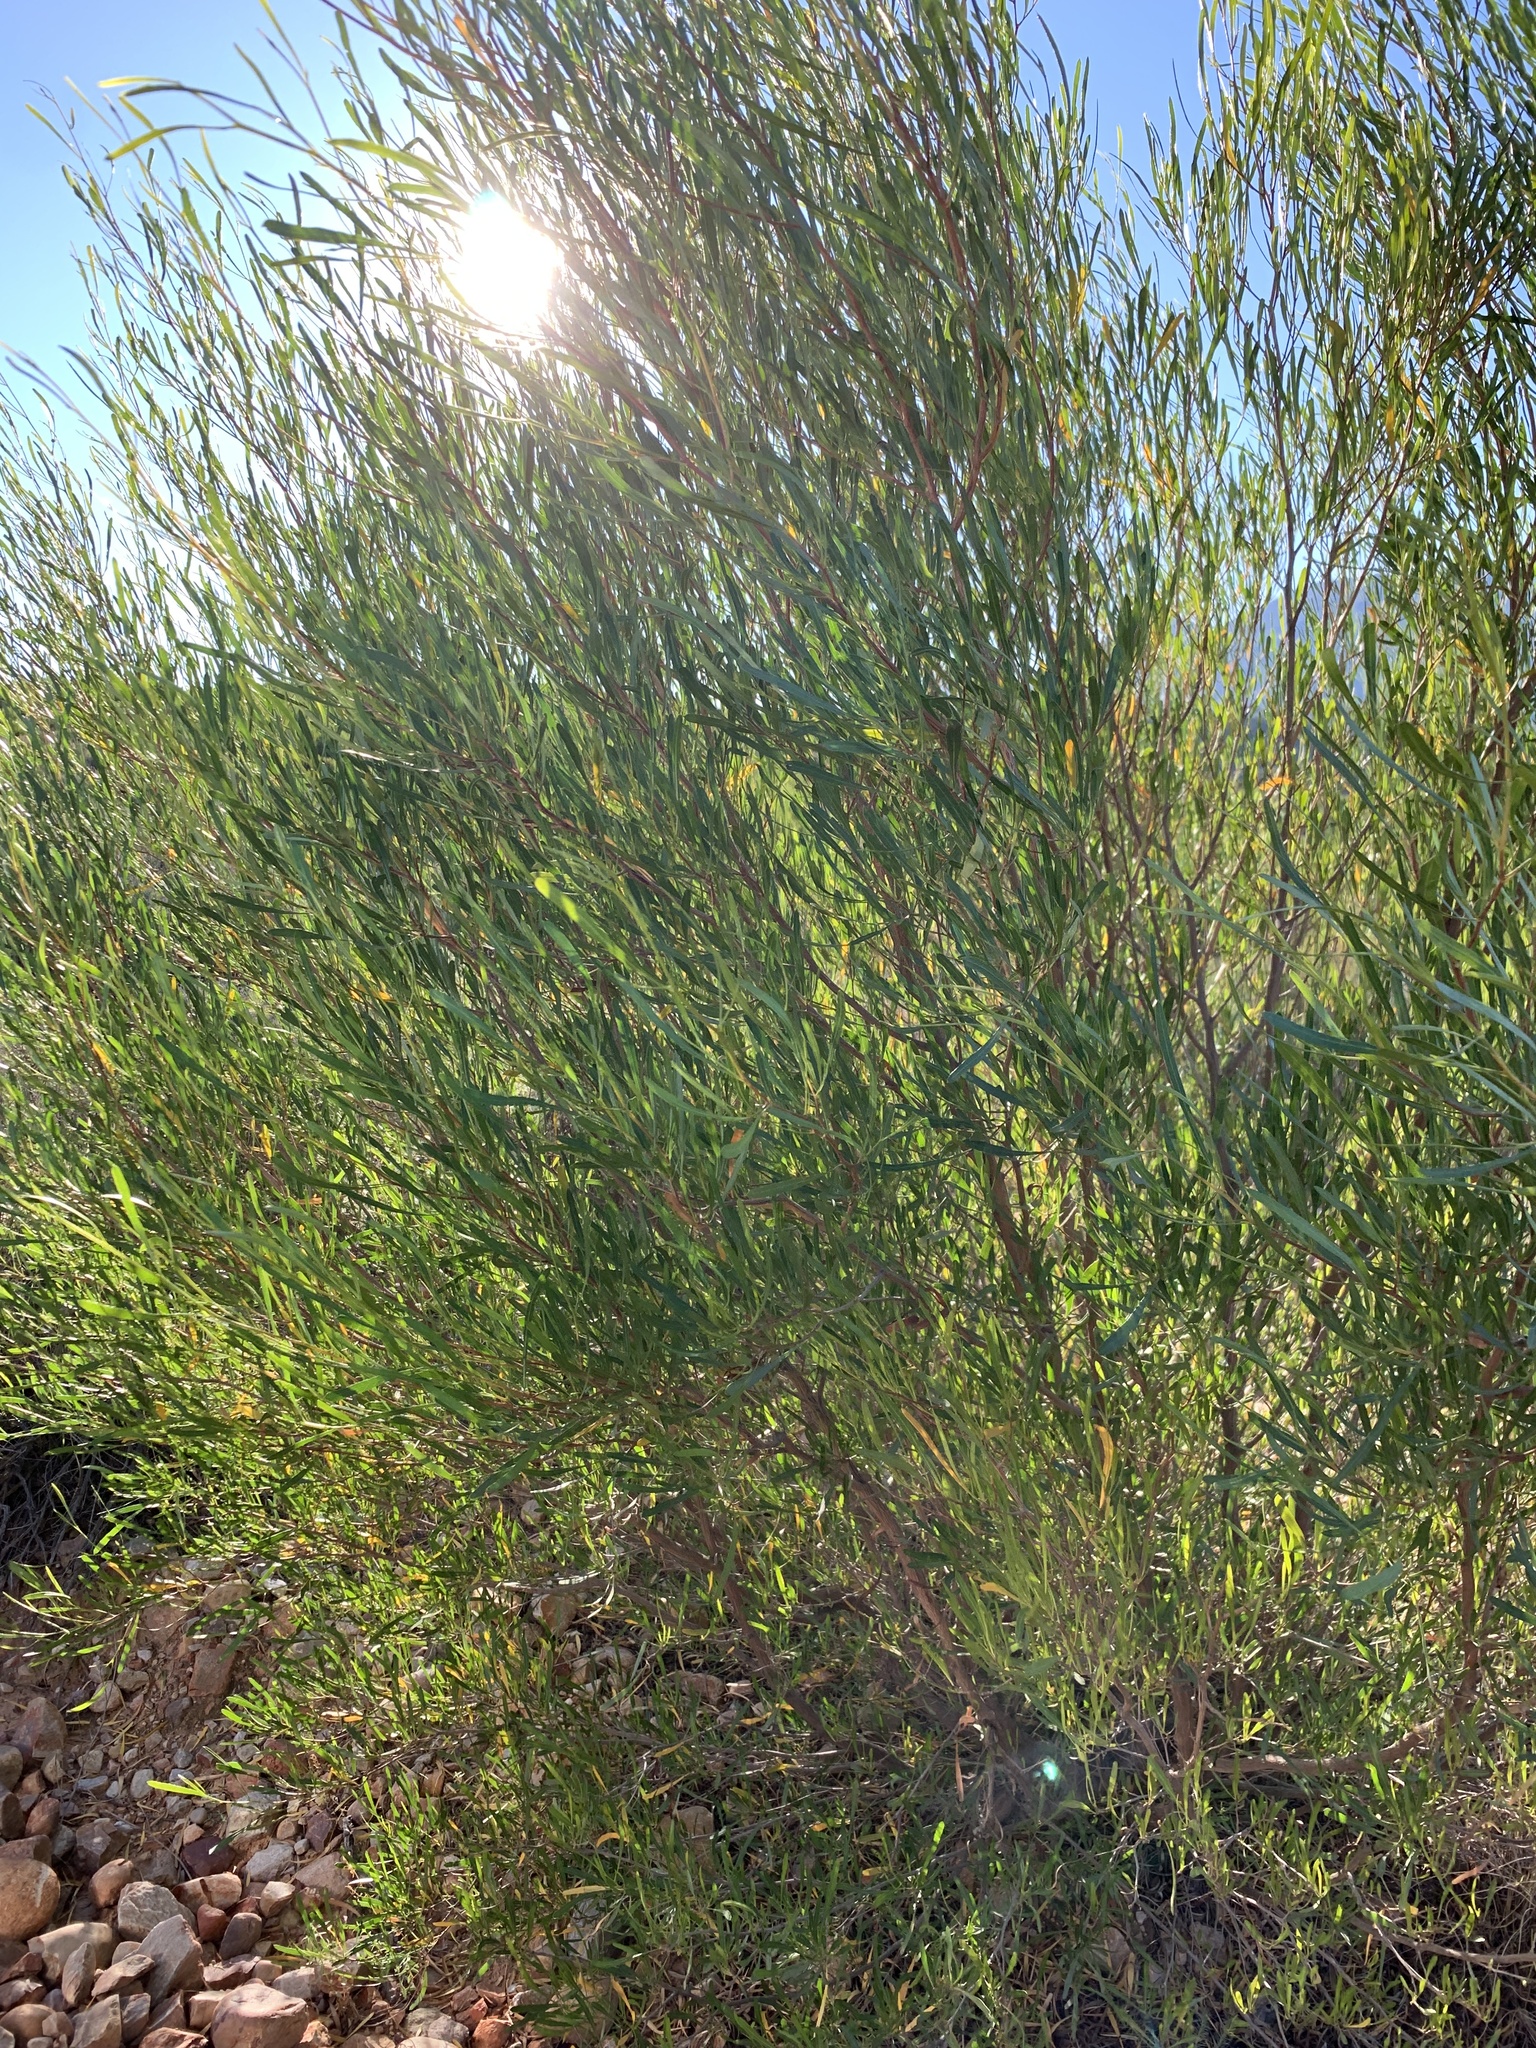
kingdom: Plantae
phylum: Tracheophyta
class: Magnoliopsida
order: Sapindales
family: Sapindaceae
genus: Dodonaea
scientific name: Dodonaea viscosa
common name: Hopbush
